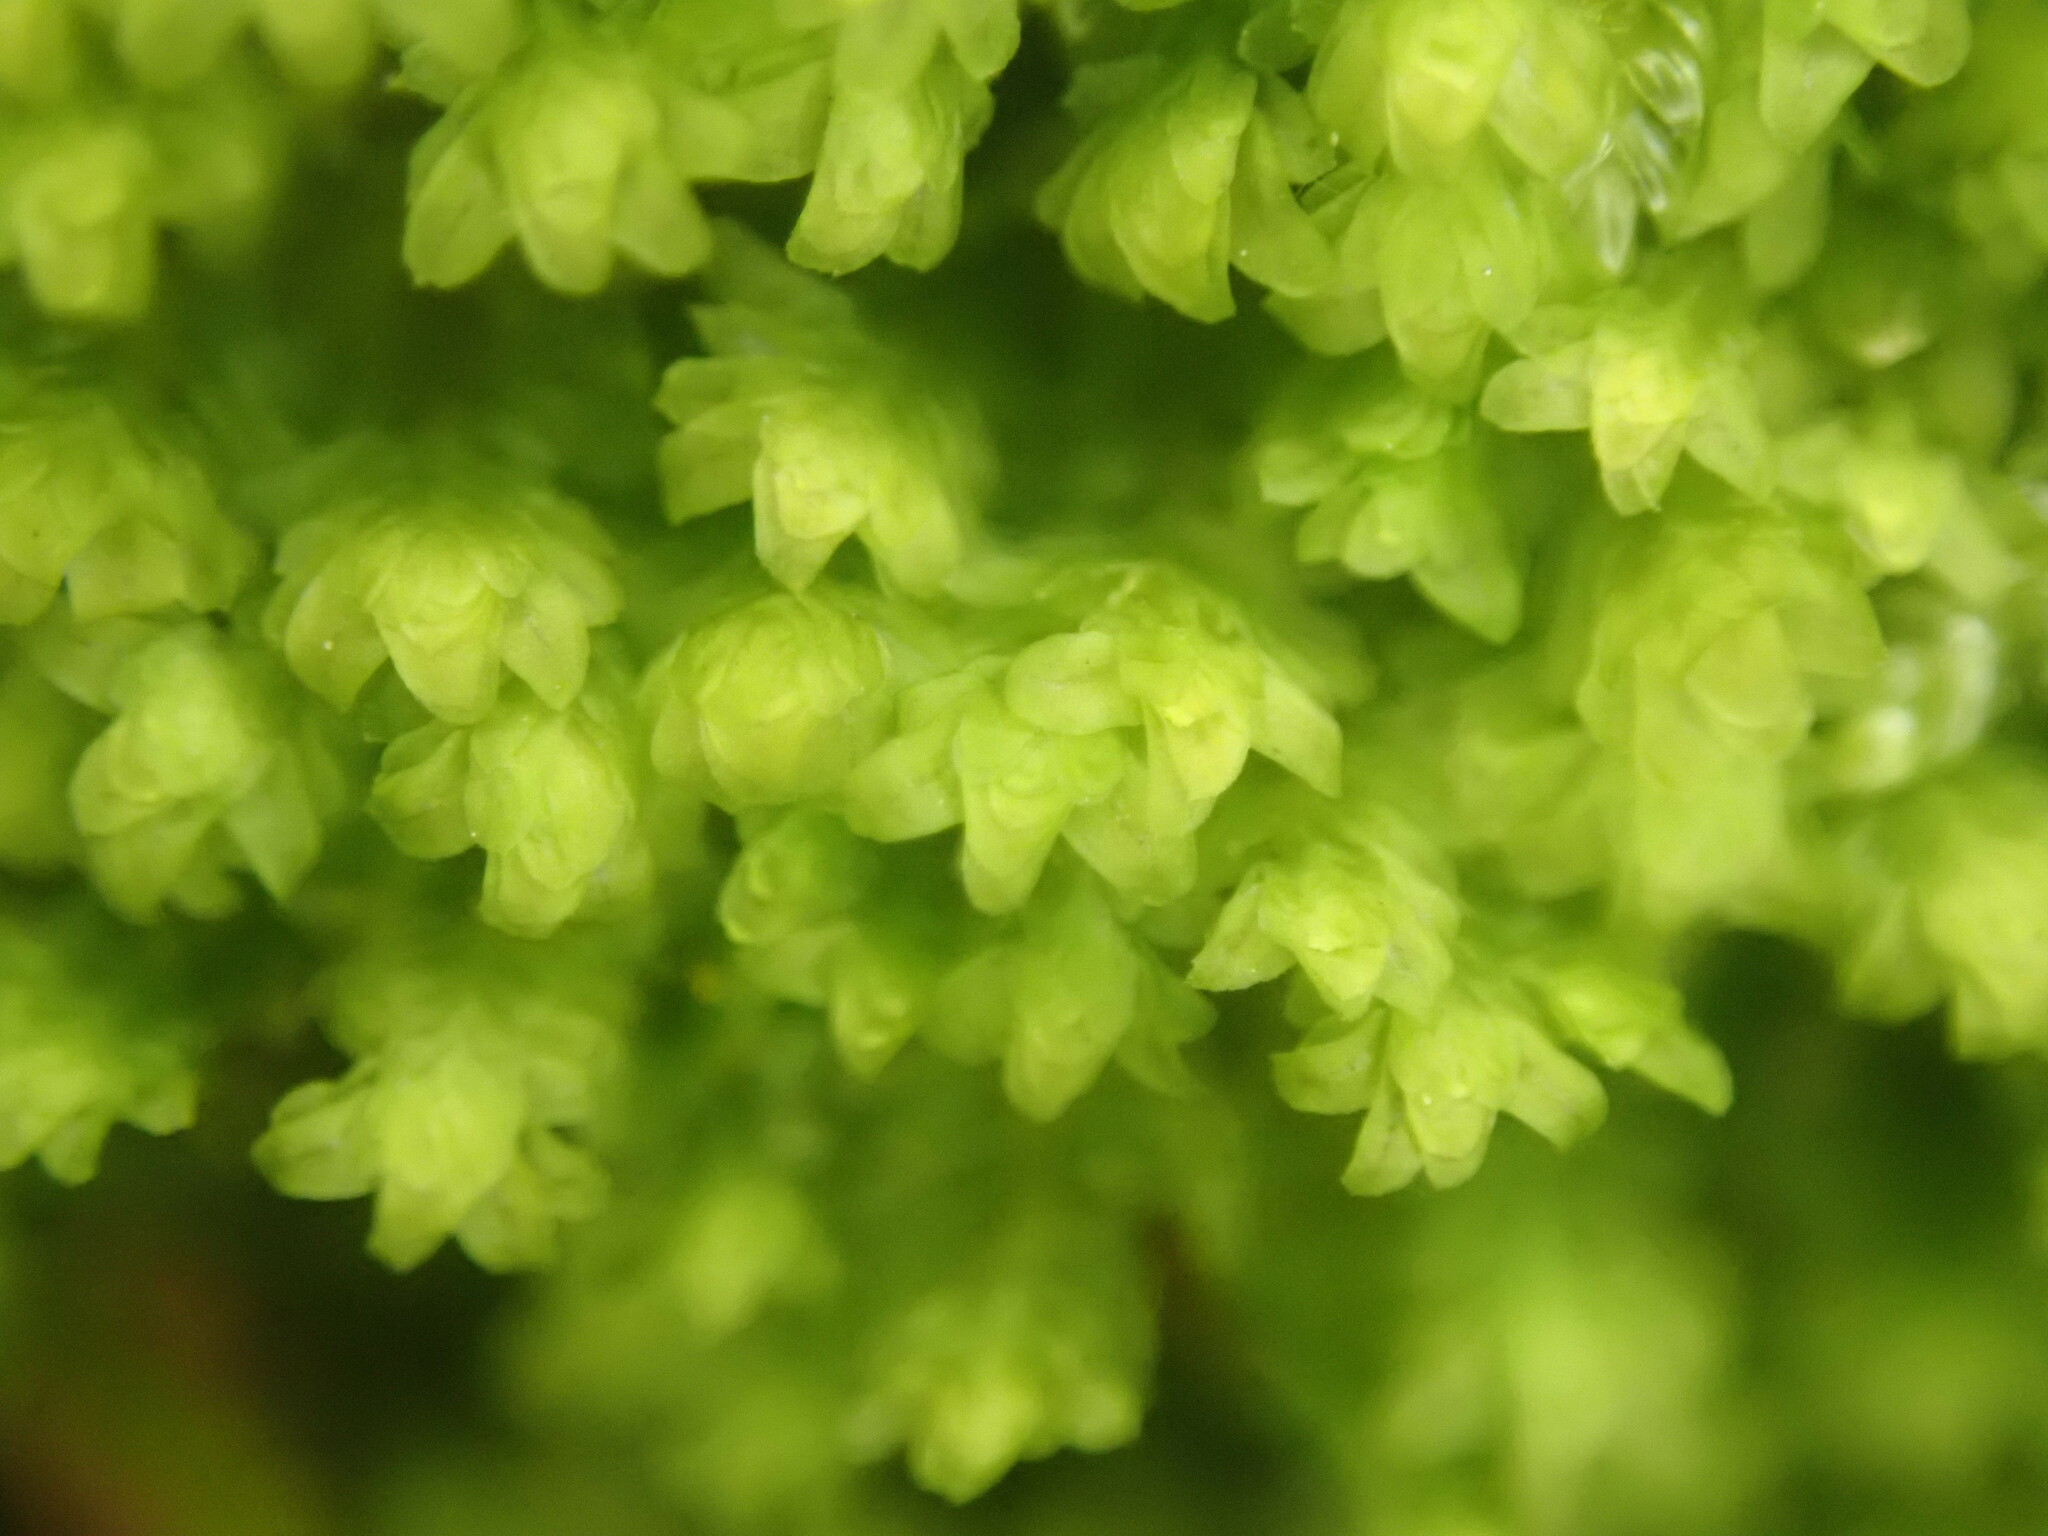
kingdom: Plantae
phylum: Marchantiophyta
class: Jungermanniopsida
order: Jungermanniales
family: Scapaniaceae
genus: Diplophyllum
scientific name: Diplophyllum albicans
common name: White earwort
